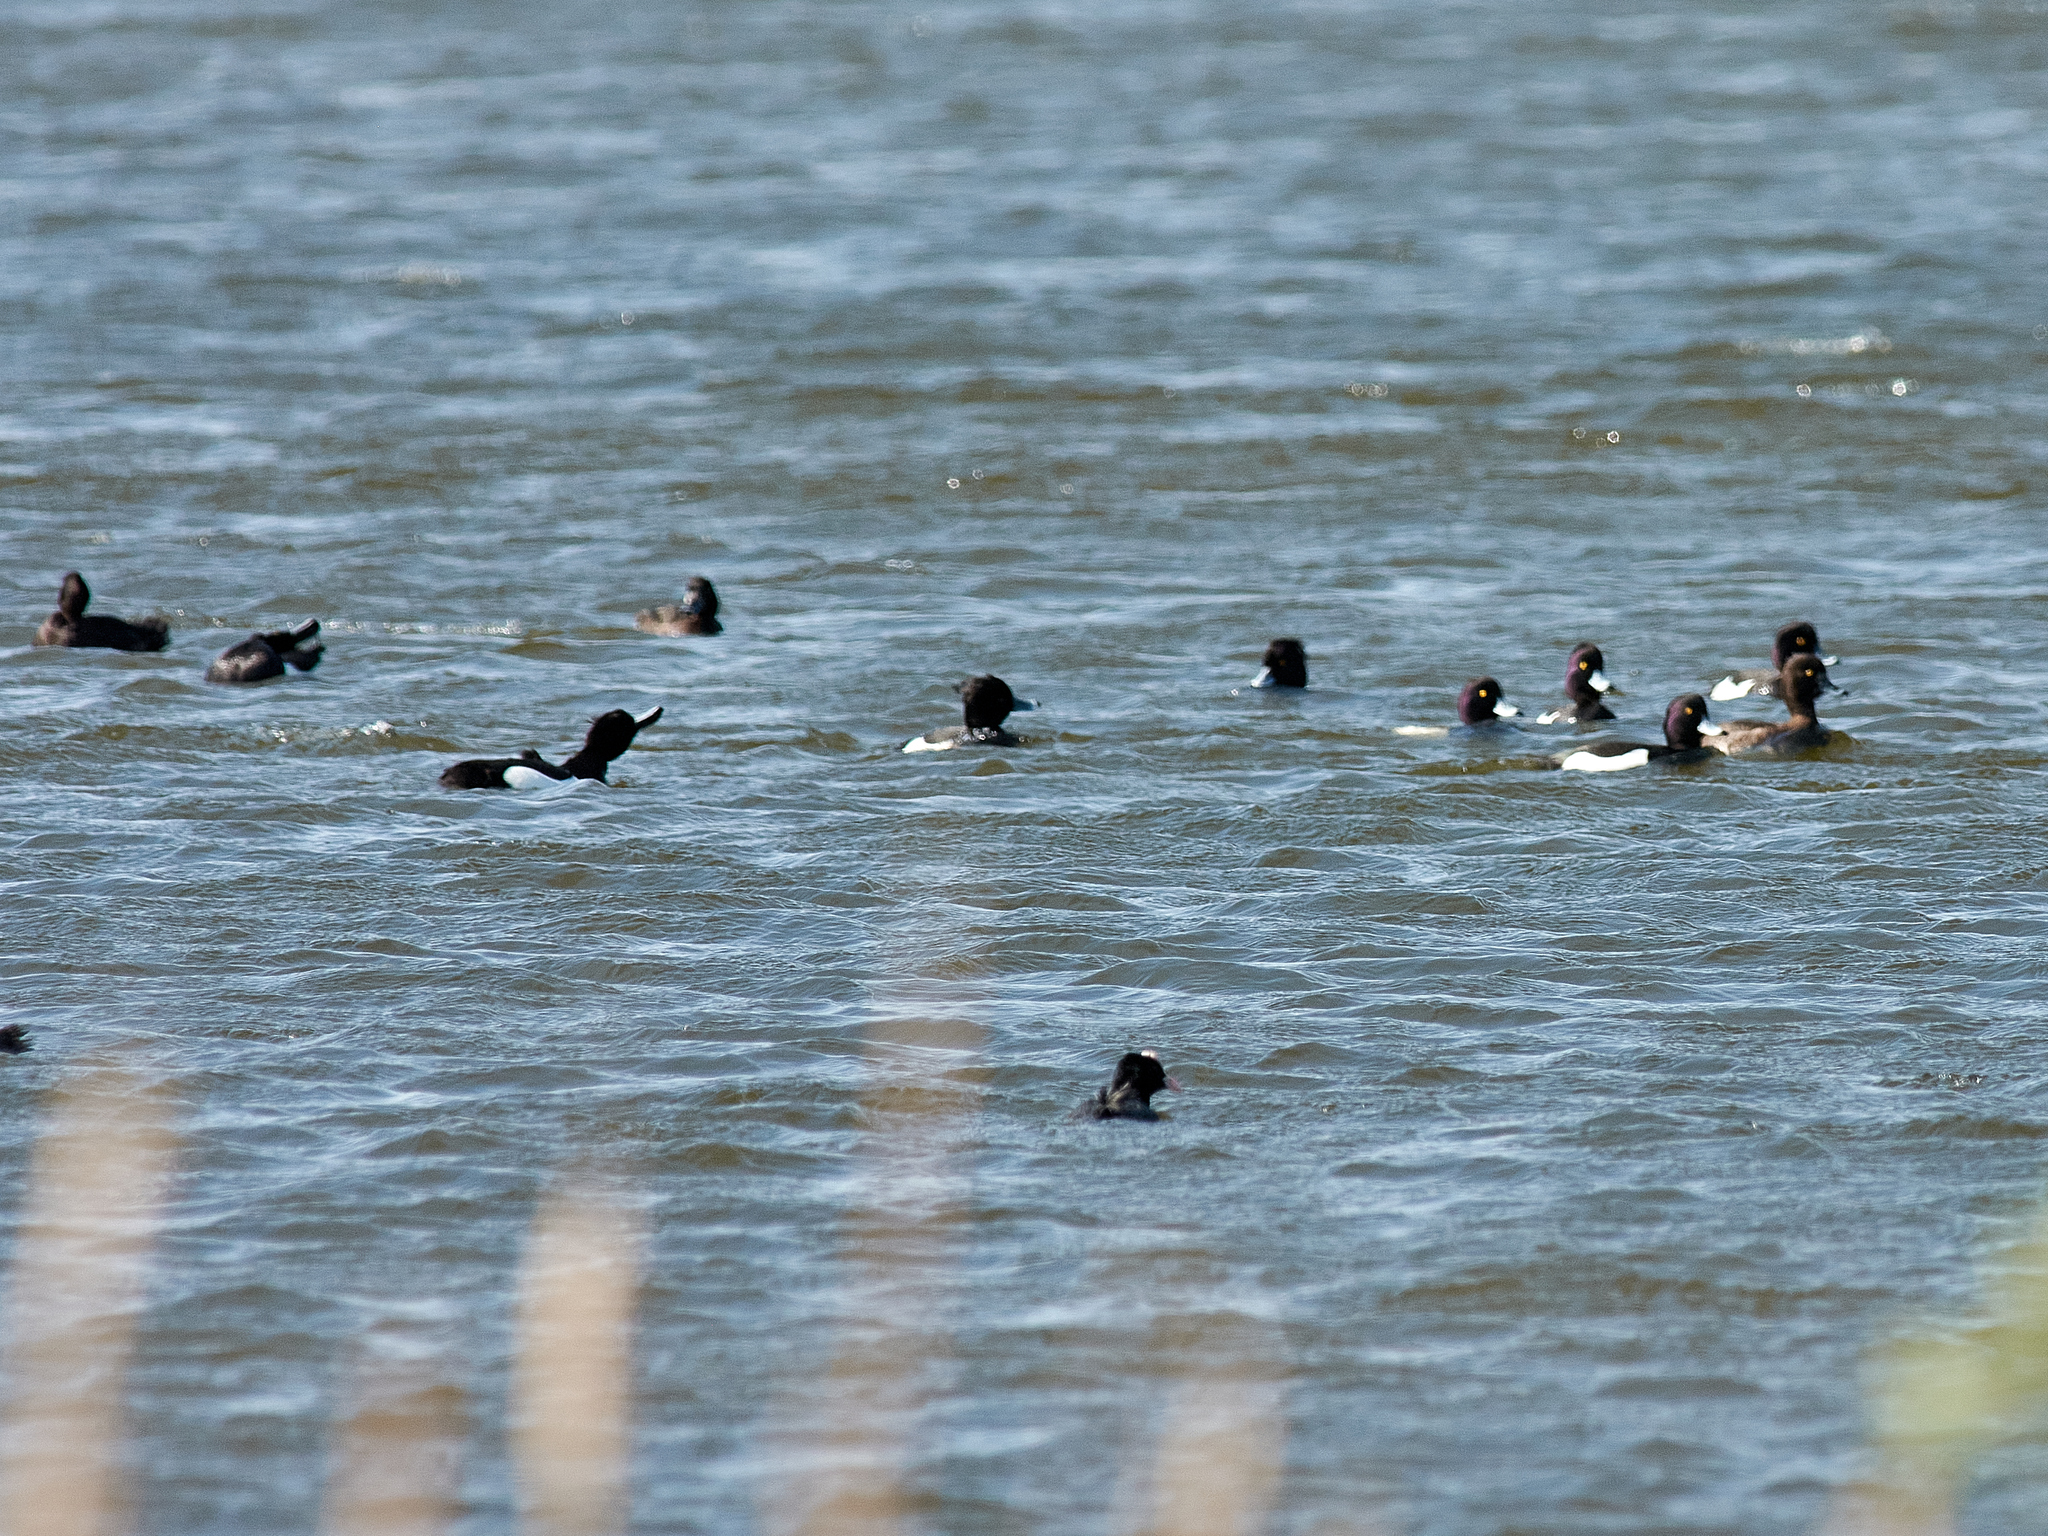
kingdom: Animalia
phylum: Chordata
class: Aves
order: Anseriformes
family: Anatidae
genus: Aythya
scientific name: Aythya fuligula
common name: Tufted duck
